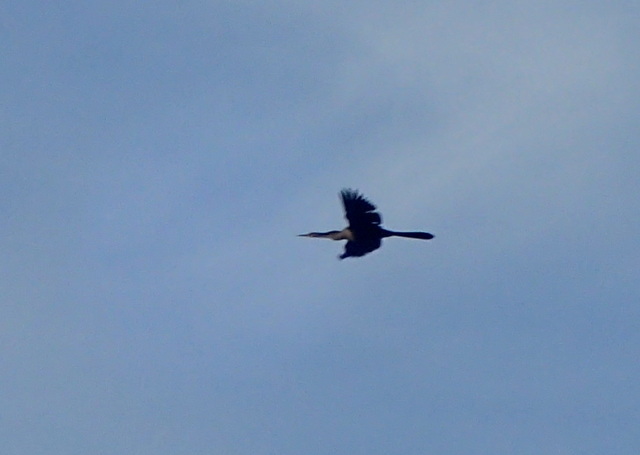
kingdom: Animalia
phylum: Chordata
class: Aves
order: Suliformes
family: Anhingidae
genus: Anhinga
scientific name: Anhinga anhinga
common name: Anhinga
